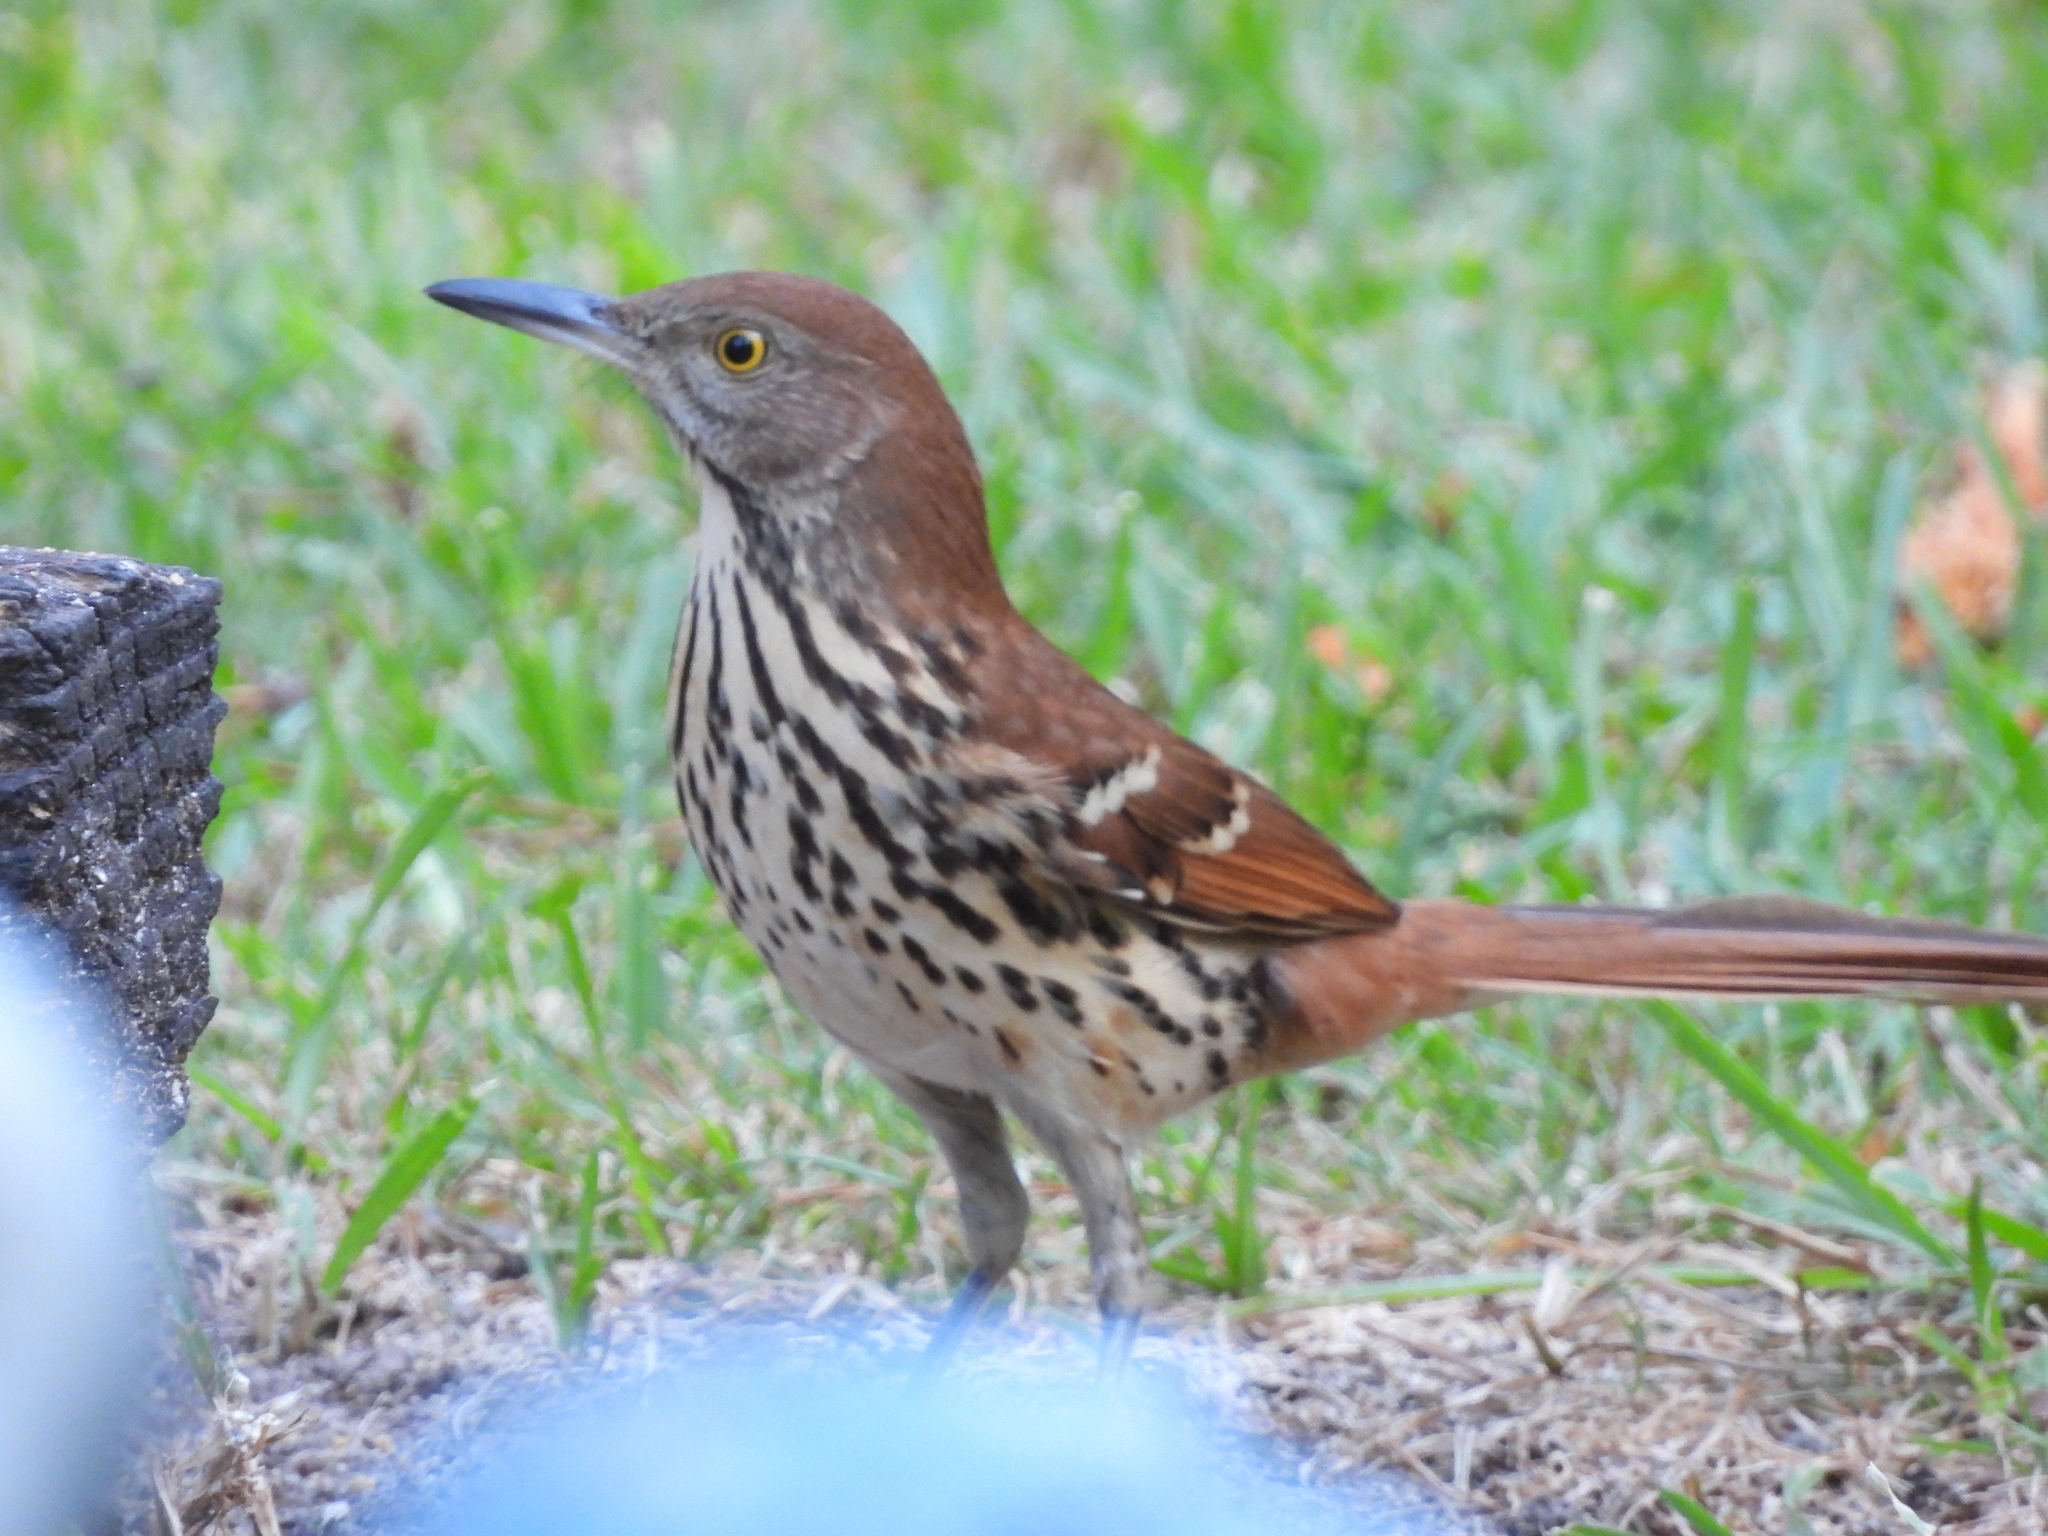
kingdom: Animalia
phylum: Chordata
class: Aves
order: Passeriformes
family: Mimidae
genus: Toxostoma
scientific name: Toxostoma rufum
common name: Brown thrasher
